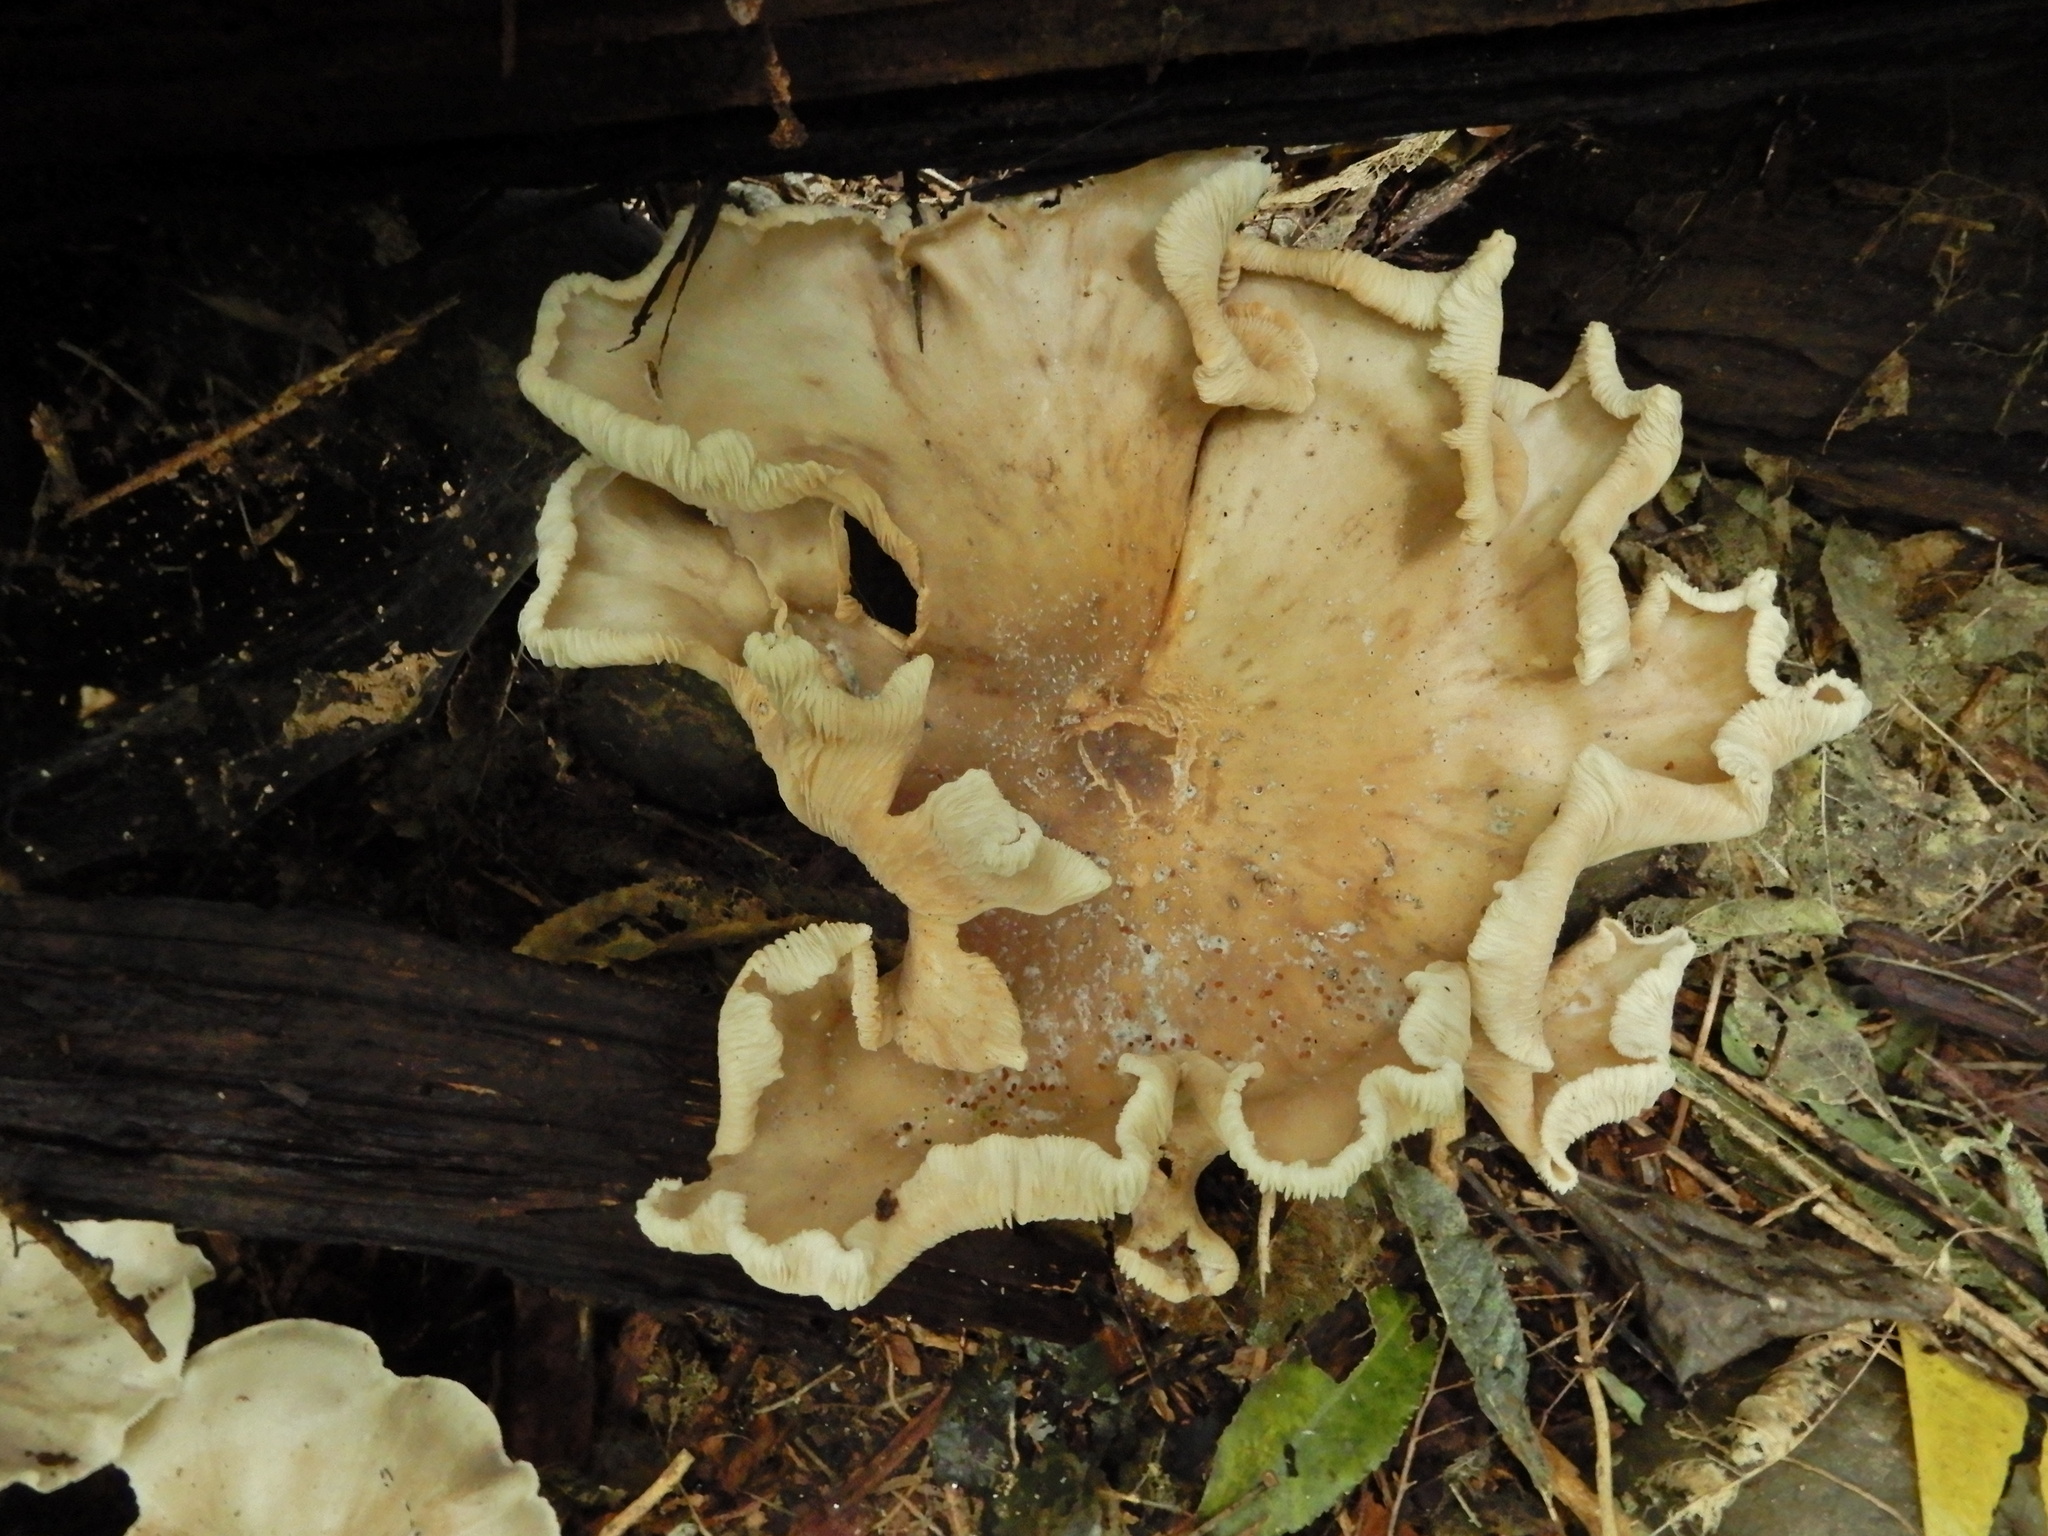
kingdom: Fungi
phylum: Basidiomycota
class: Agaricomycetes
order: Agaricales
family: Tricholomataceae
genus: Clitocybe
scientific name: Clitocybe nebularis
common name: Clouded agaric
